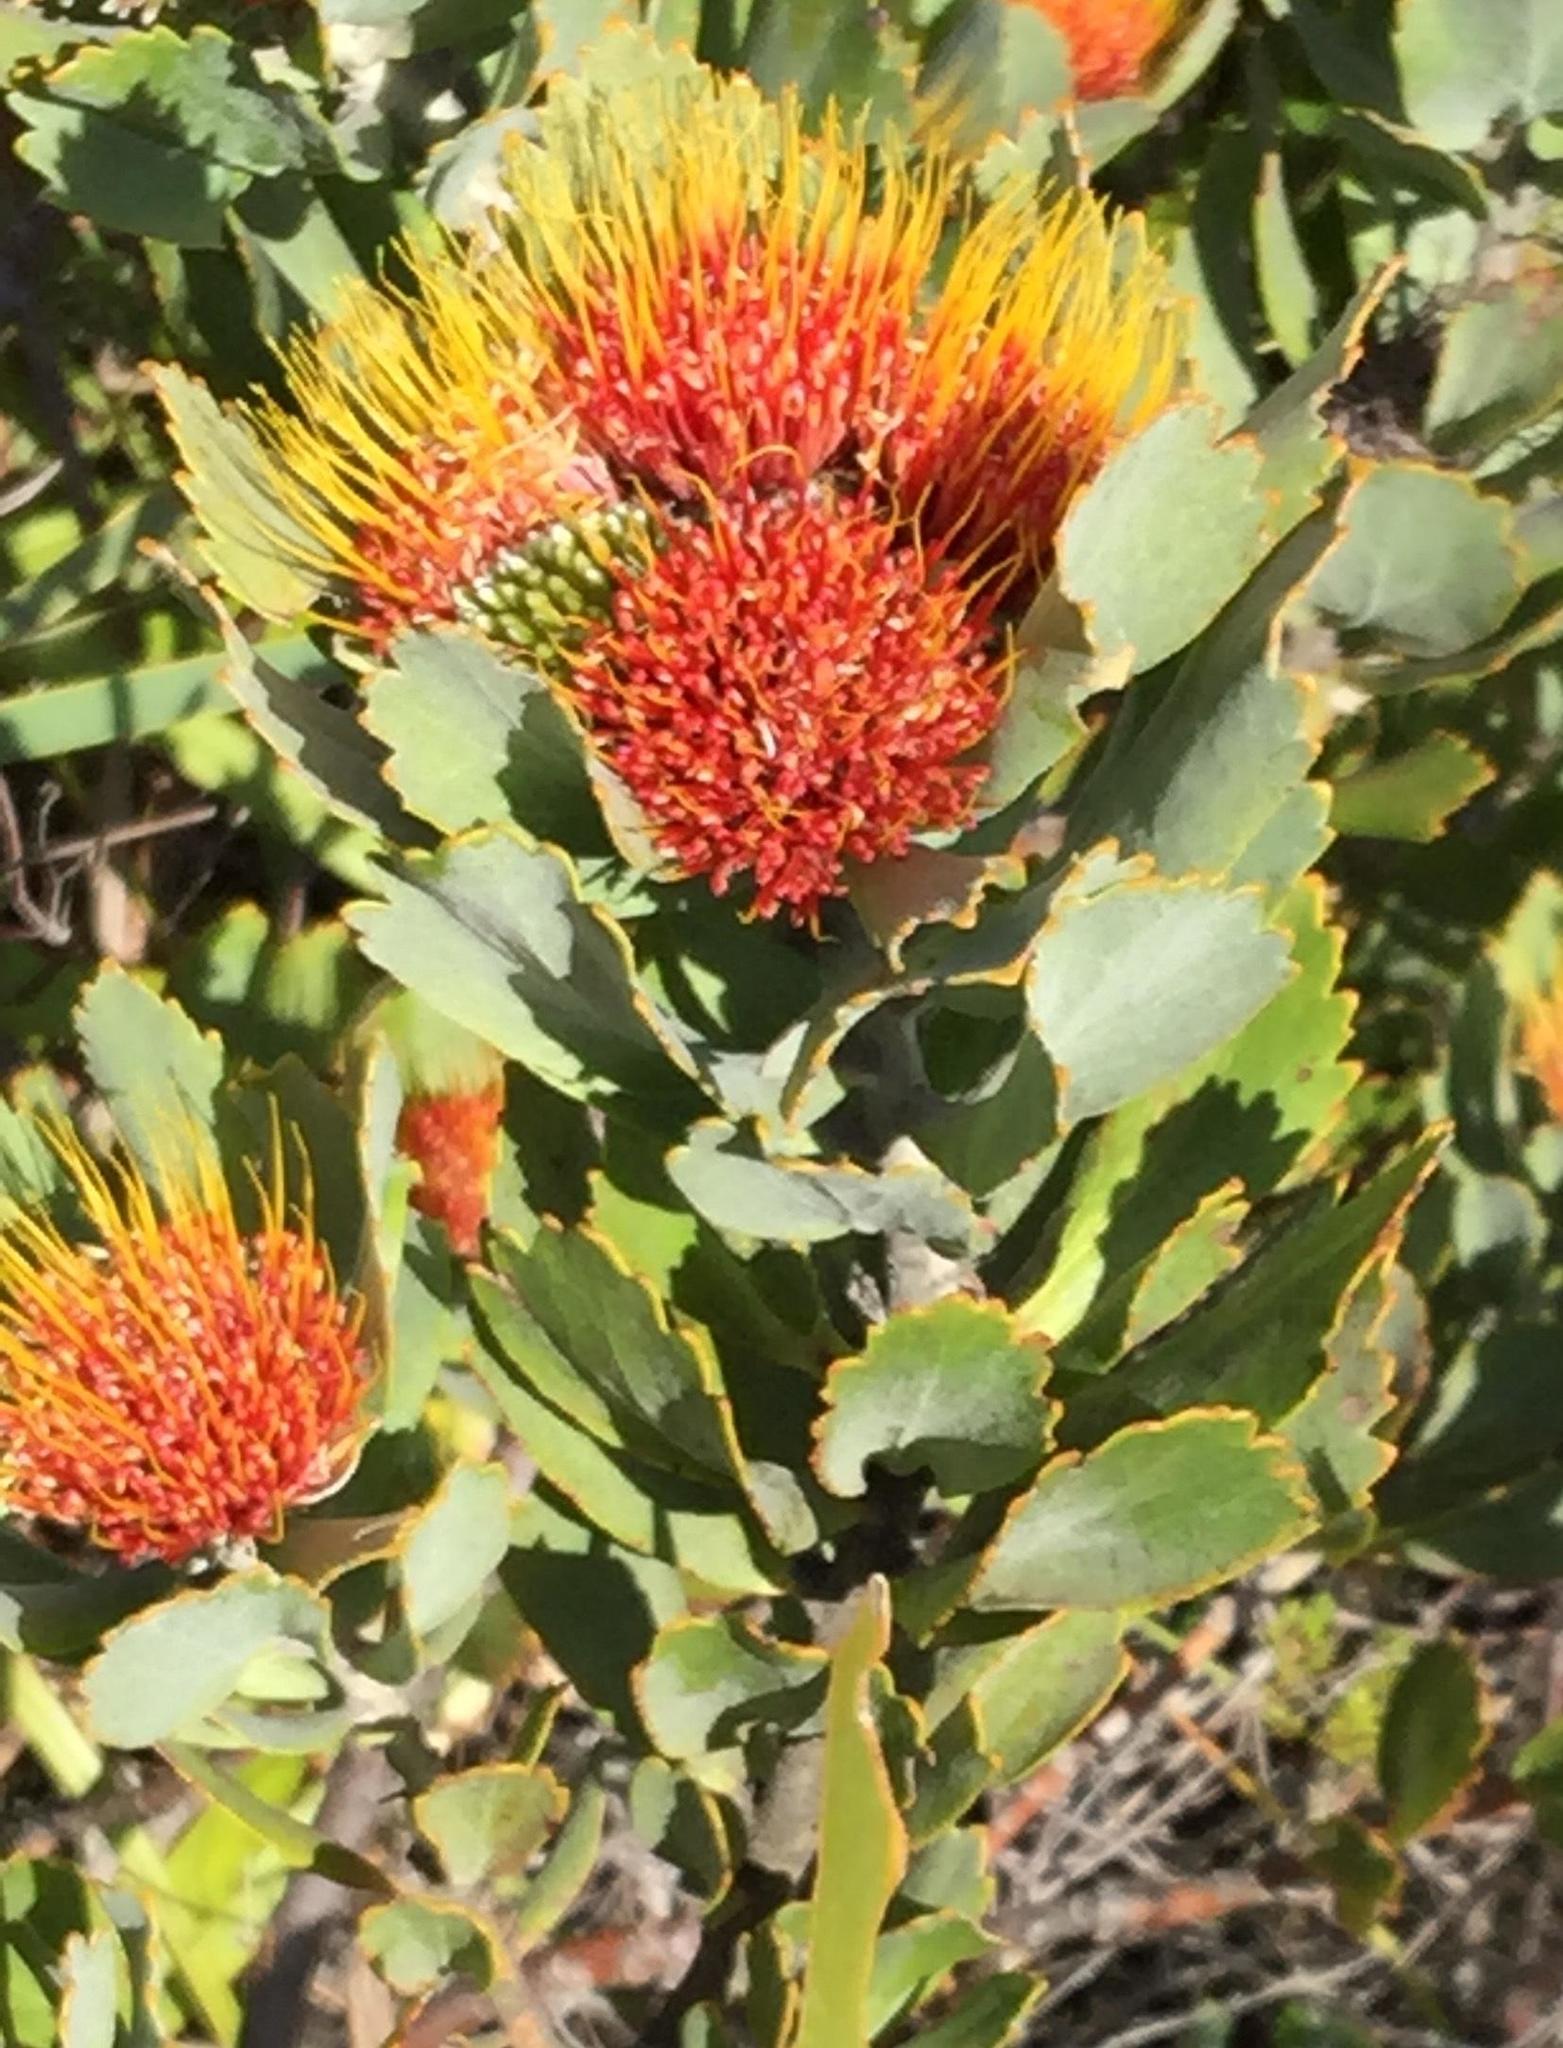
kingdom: Plantae
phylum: Tracheophyta
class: Magnoliopsida
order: Proteales
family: Proteaceae
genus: Leucospermum
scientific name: Leucospermum mundii
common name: Langeberg pincushion
